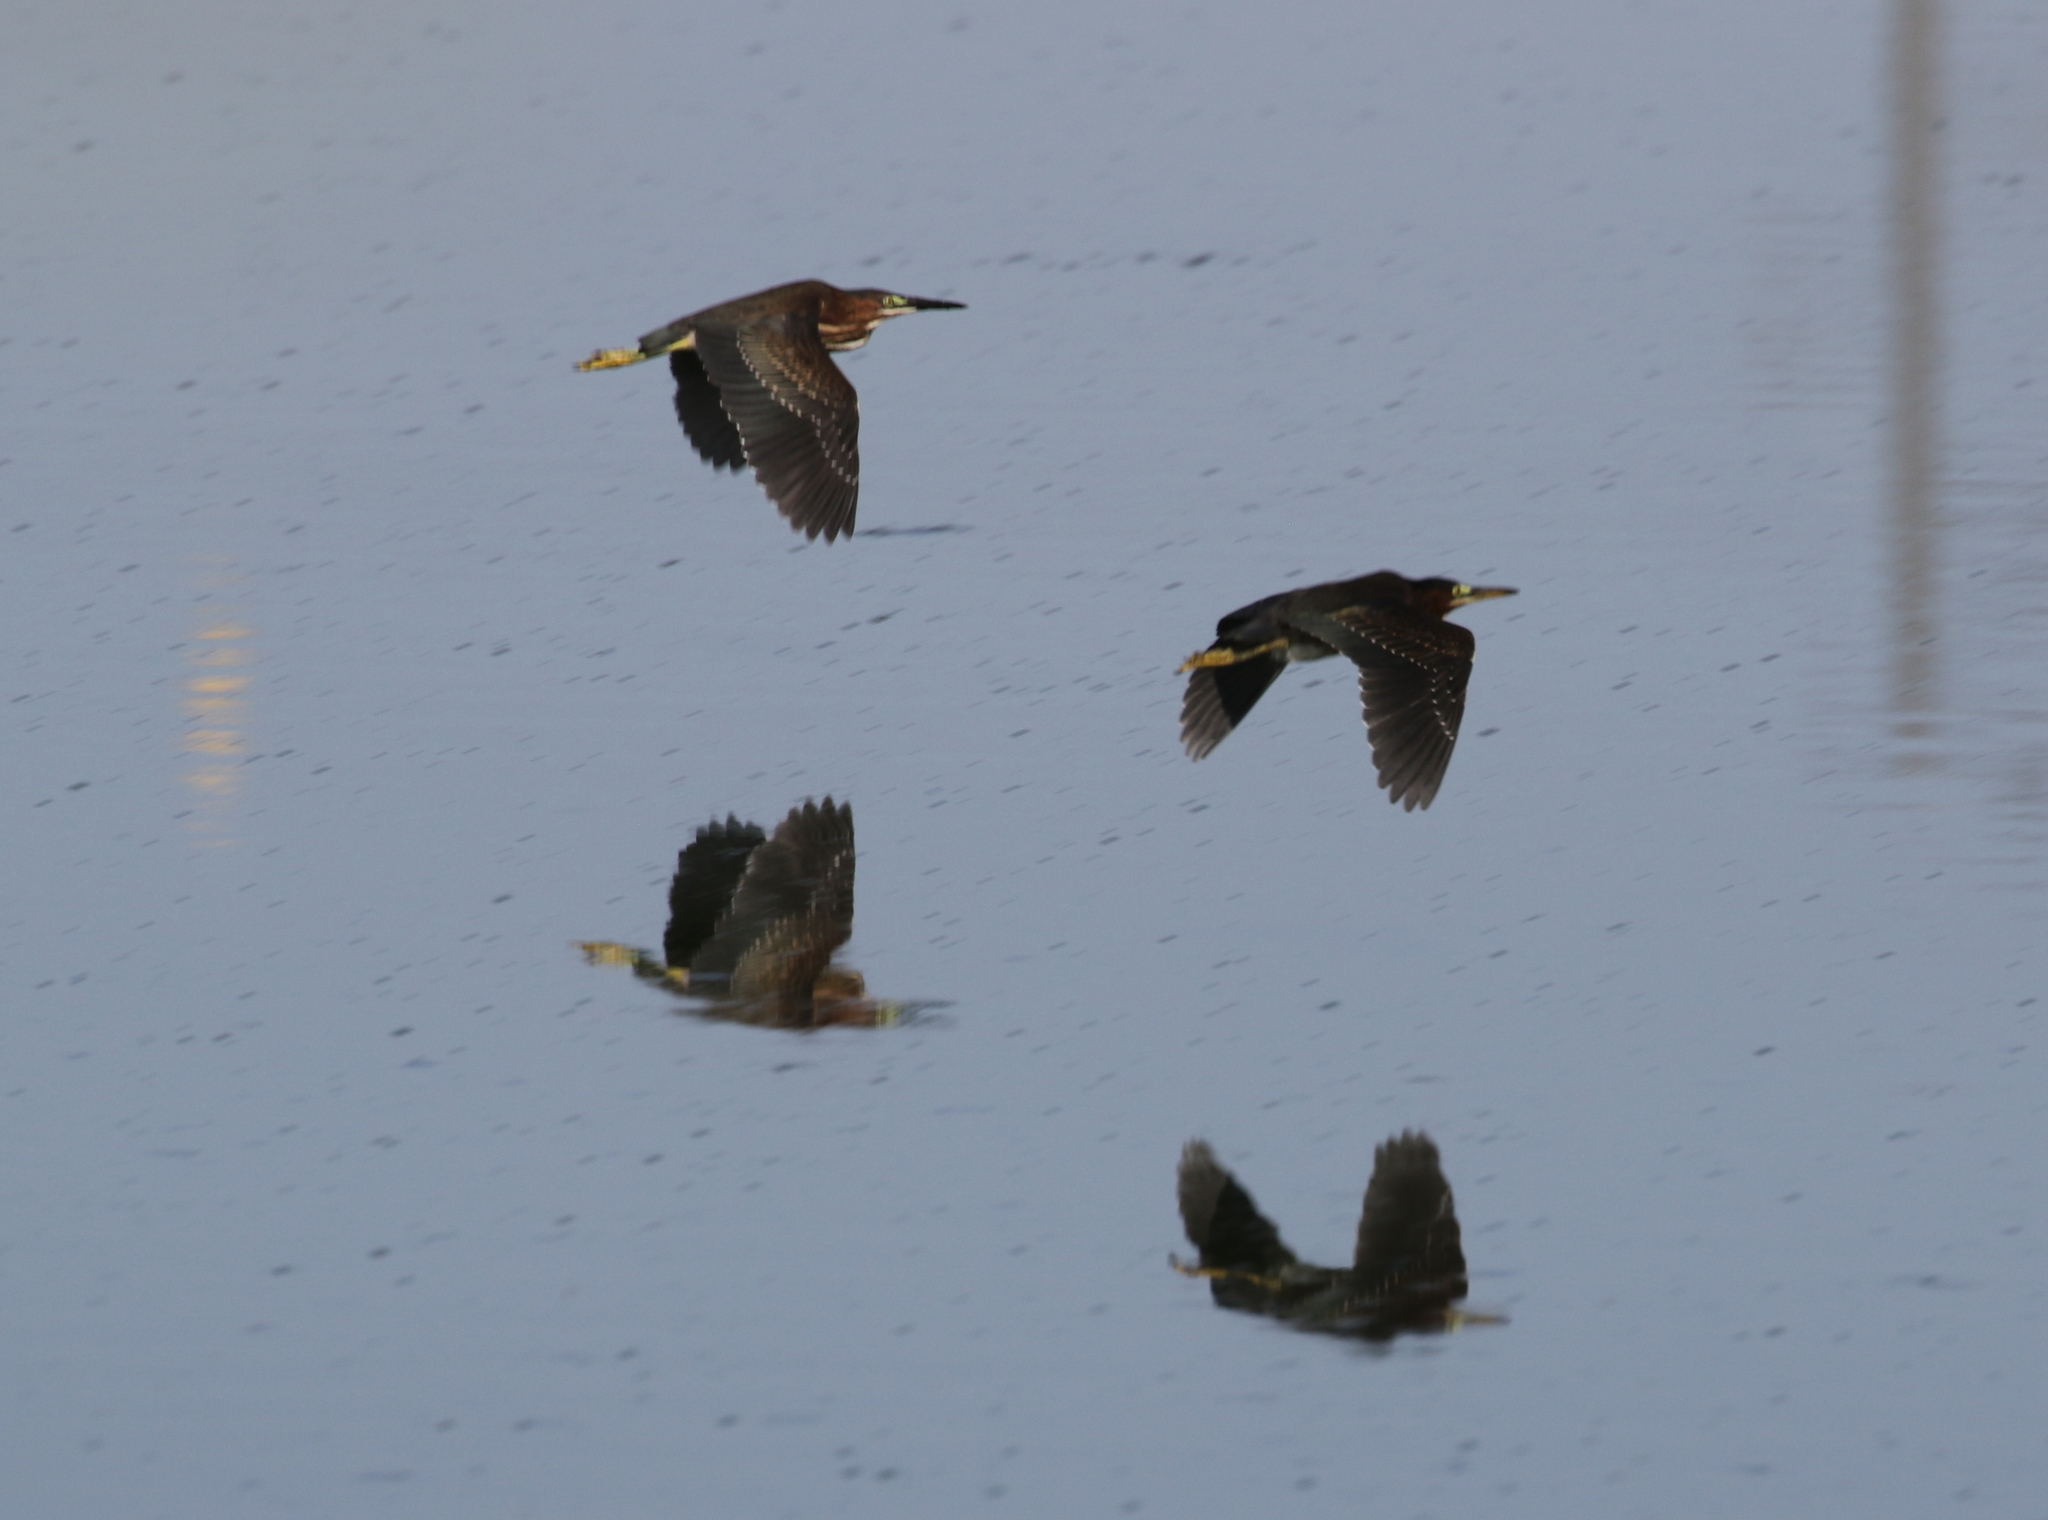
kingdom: Animalia
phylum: Chordata
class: Aves
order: Pelecaniformes
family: Ardeidae
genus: Butorides
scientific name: Butorides virescens
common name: Green heron
